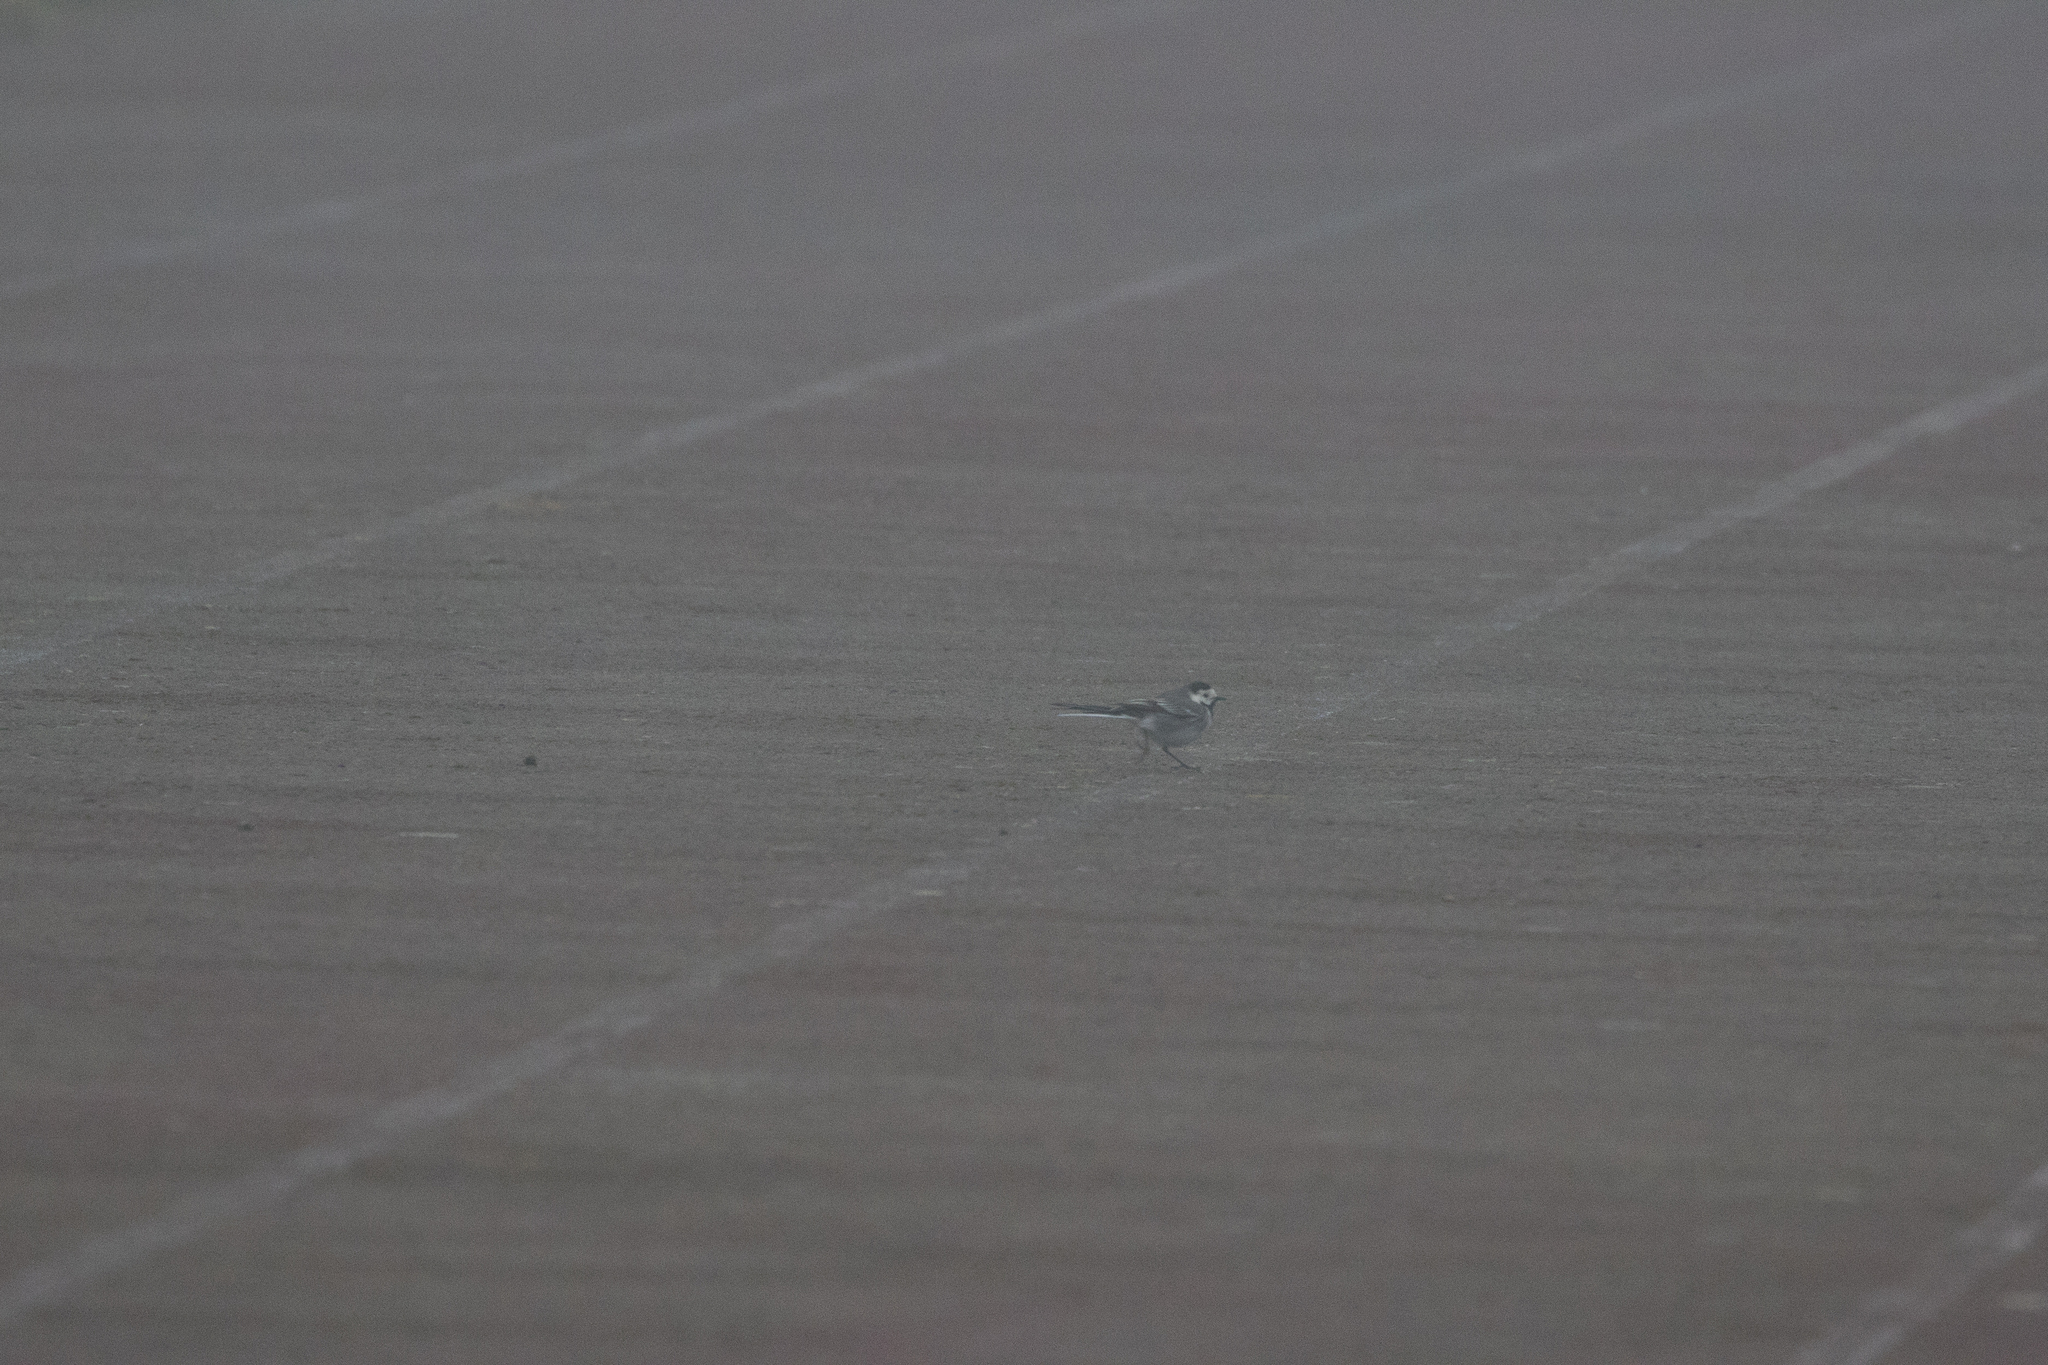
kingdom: Animalia
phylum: Chordata
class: Aves
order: Passeriformes
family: Motacillidae
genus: Motacilla
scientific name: Motacilla alba
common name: White wagtail
